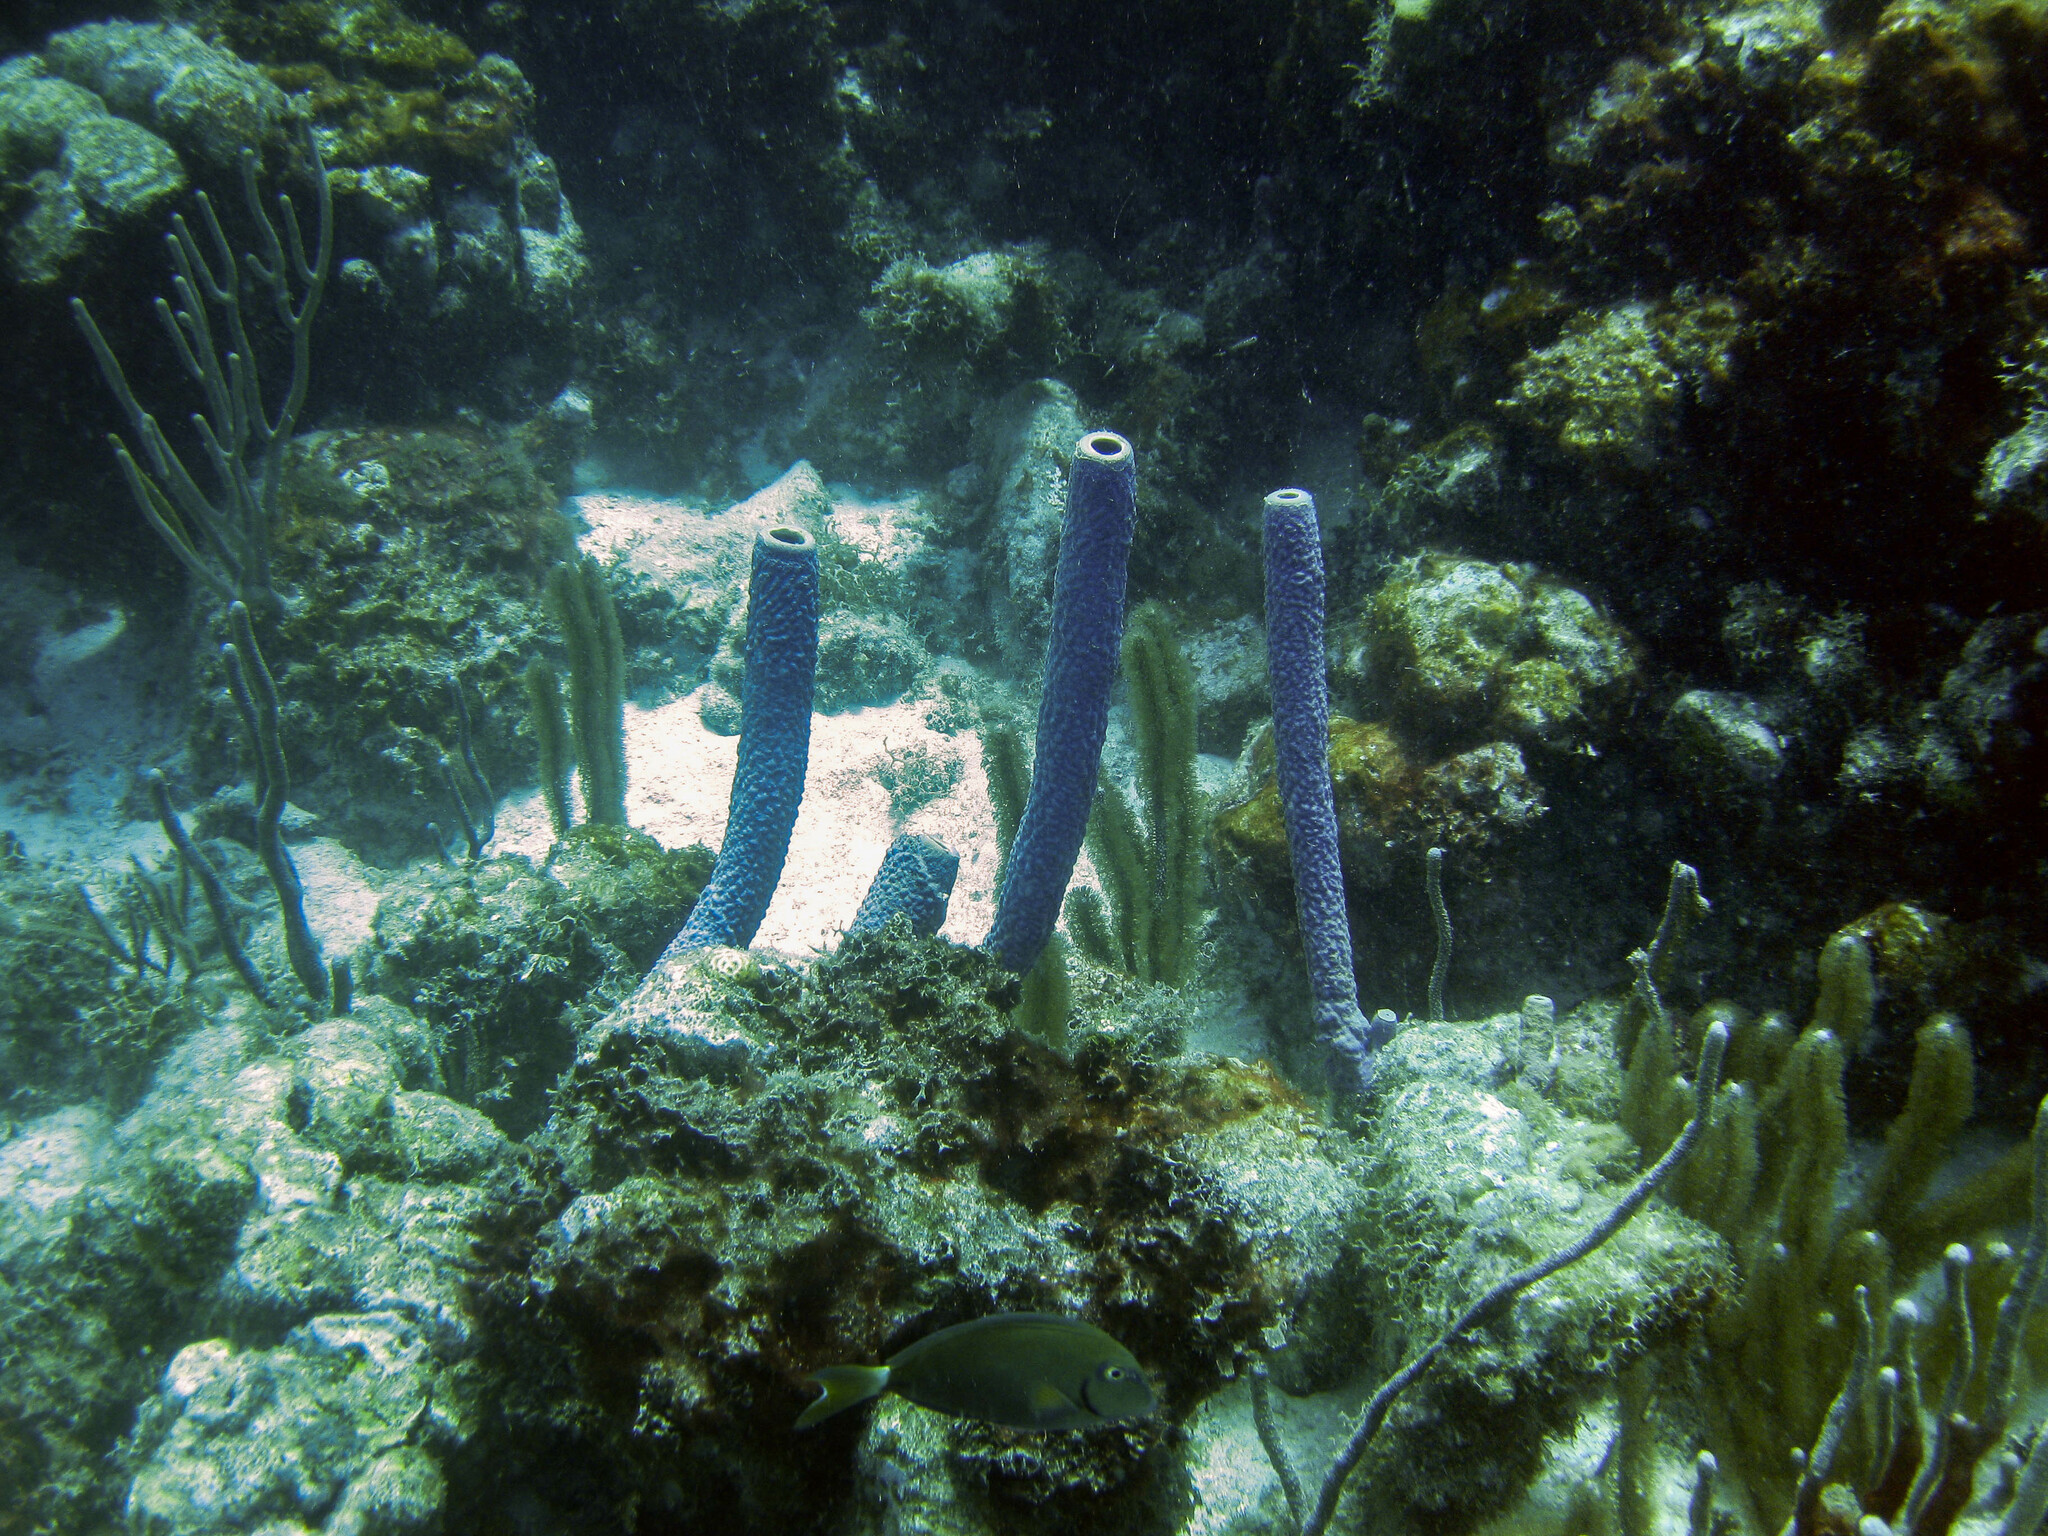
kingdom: Animalia
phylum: Porifera
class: Demospongiae
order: Verongiida
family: Aplysinidae
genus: Aplysina
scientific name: Aplysina archeri
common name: Stove-pipe sponge
